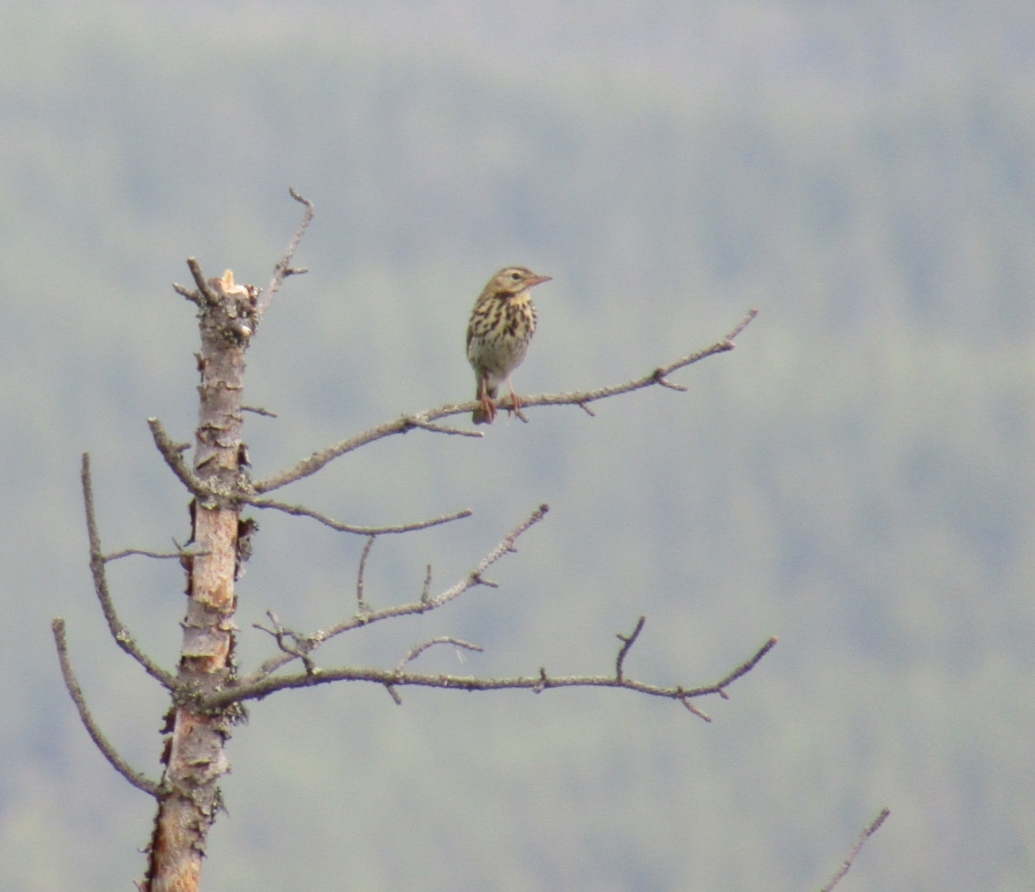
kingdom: Animalia
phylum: Chordata
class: Aves
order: Passeriformes
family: Motacillidae
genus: Anthus
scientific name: Anthus trivialis
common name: Tree pipit
